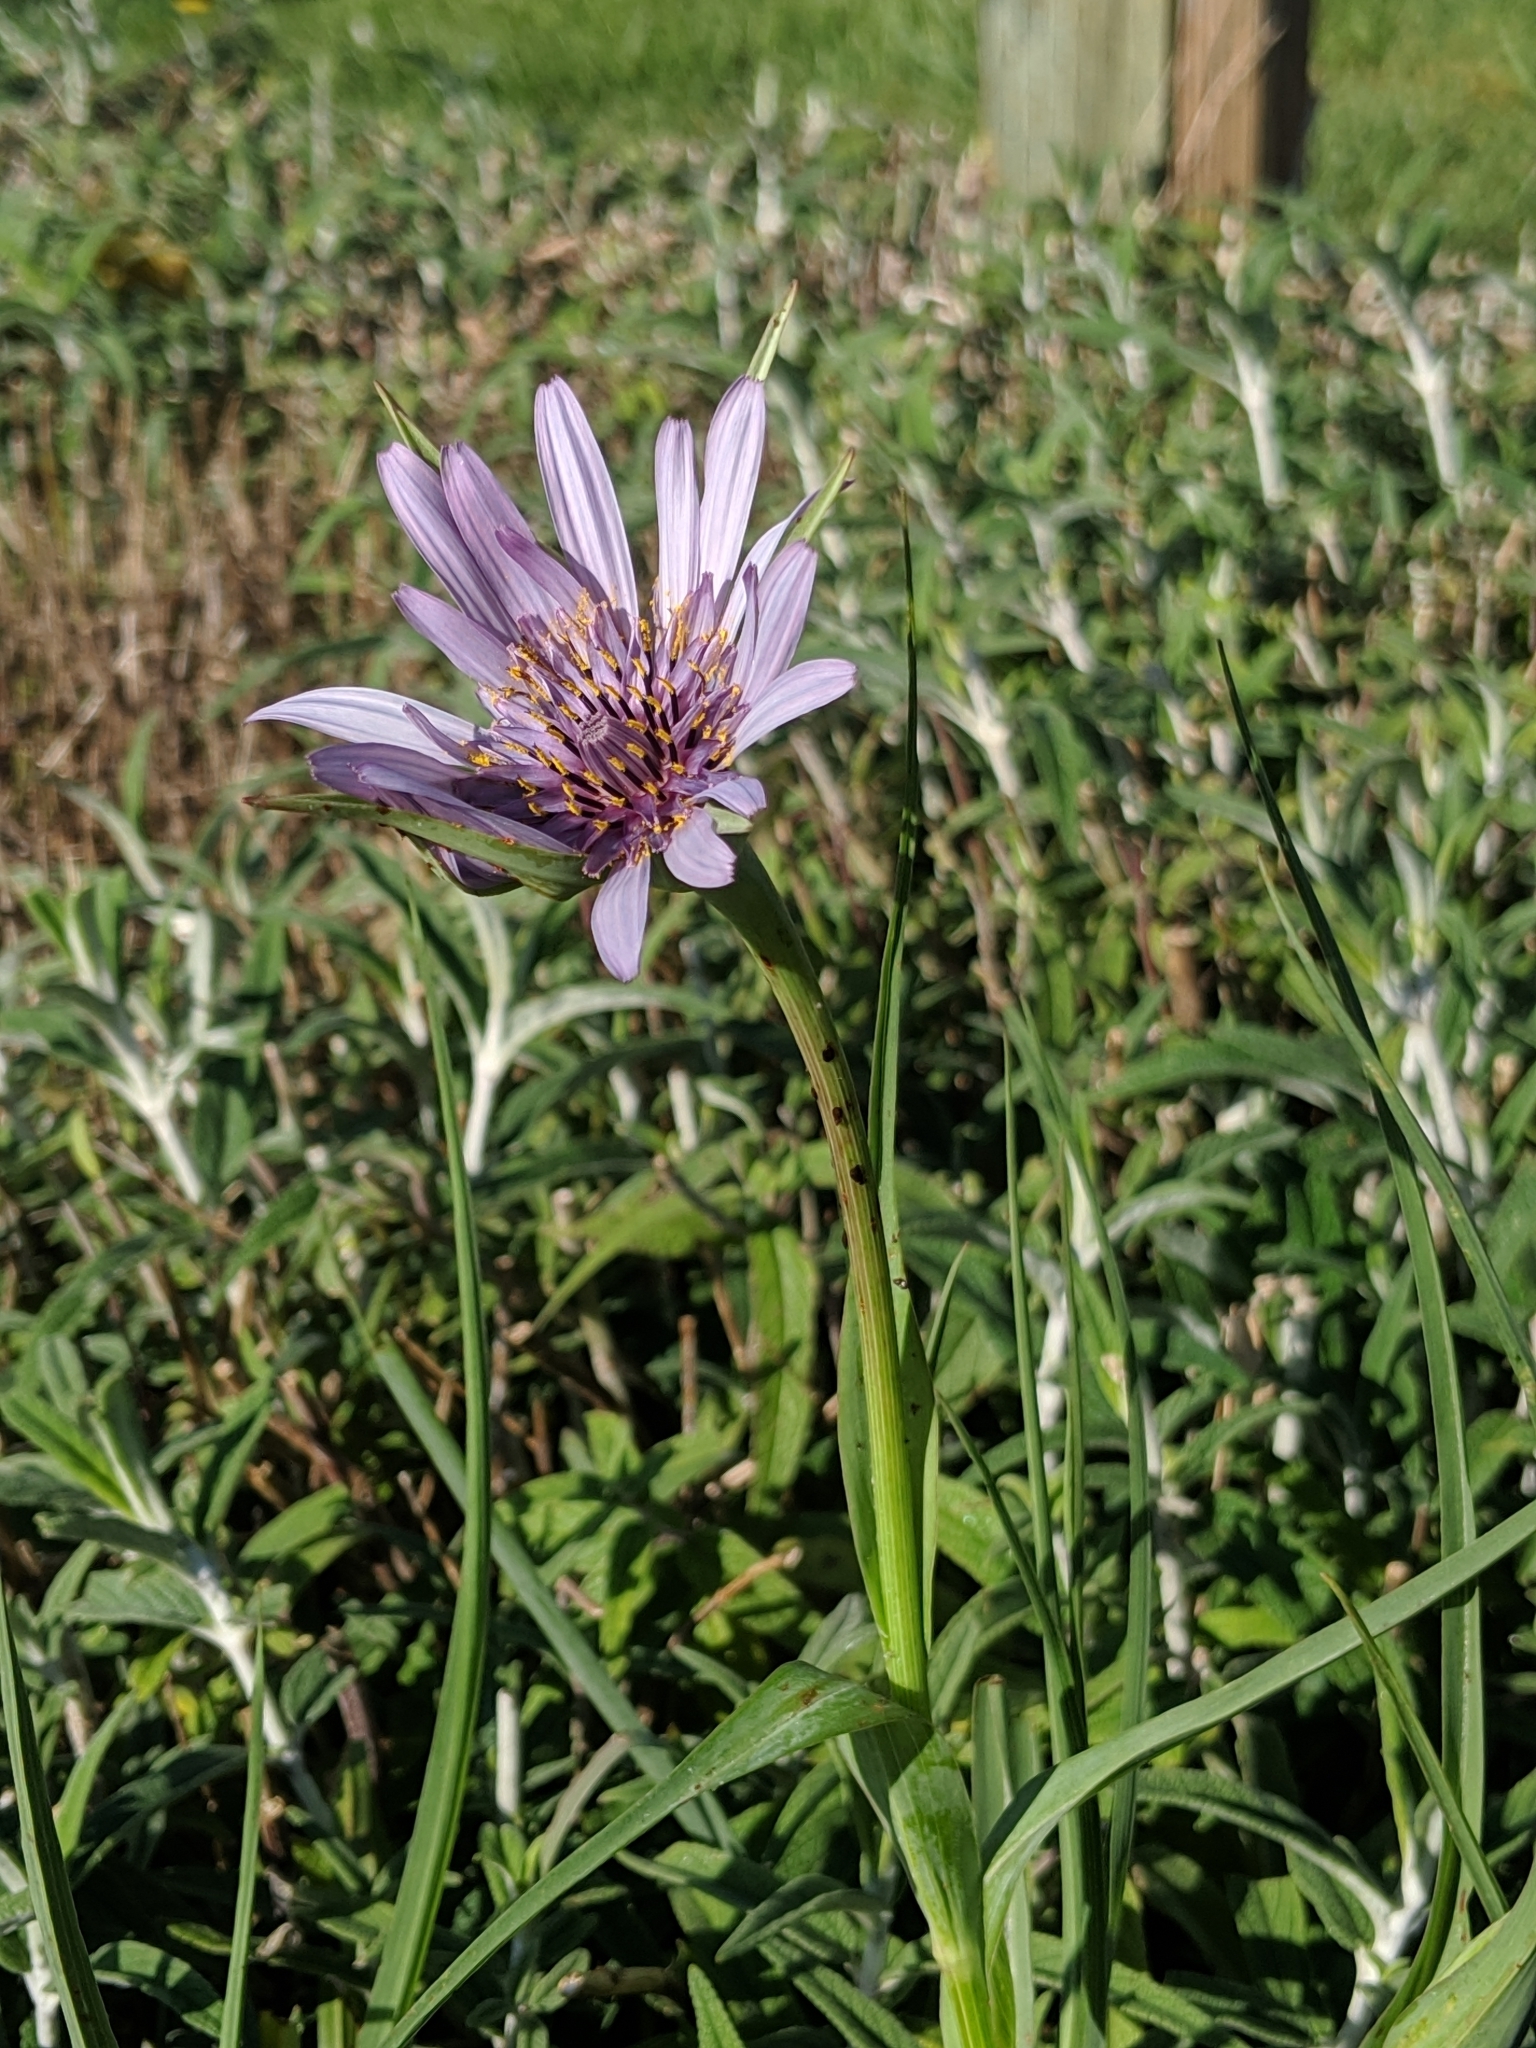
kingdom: Plantae
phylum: Tracheophyta
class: Magnoliopsida
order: Asterales
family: Asteraceae
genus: Tragopogon
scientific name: Tragopogon porrifolius
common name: Salsify
